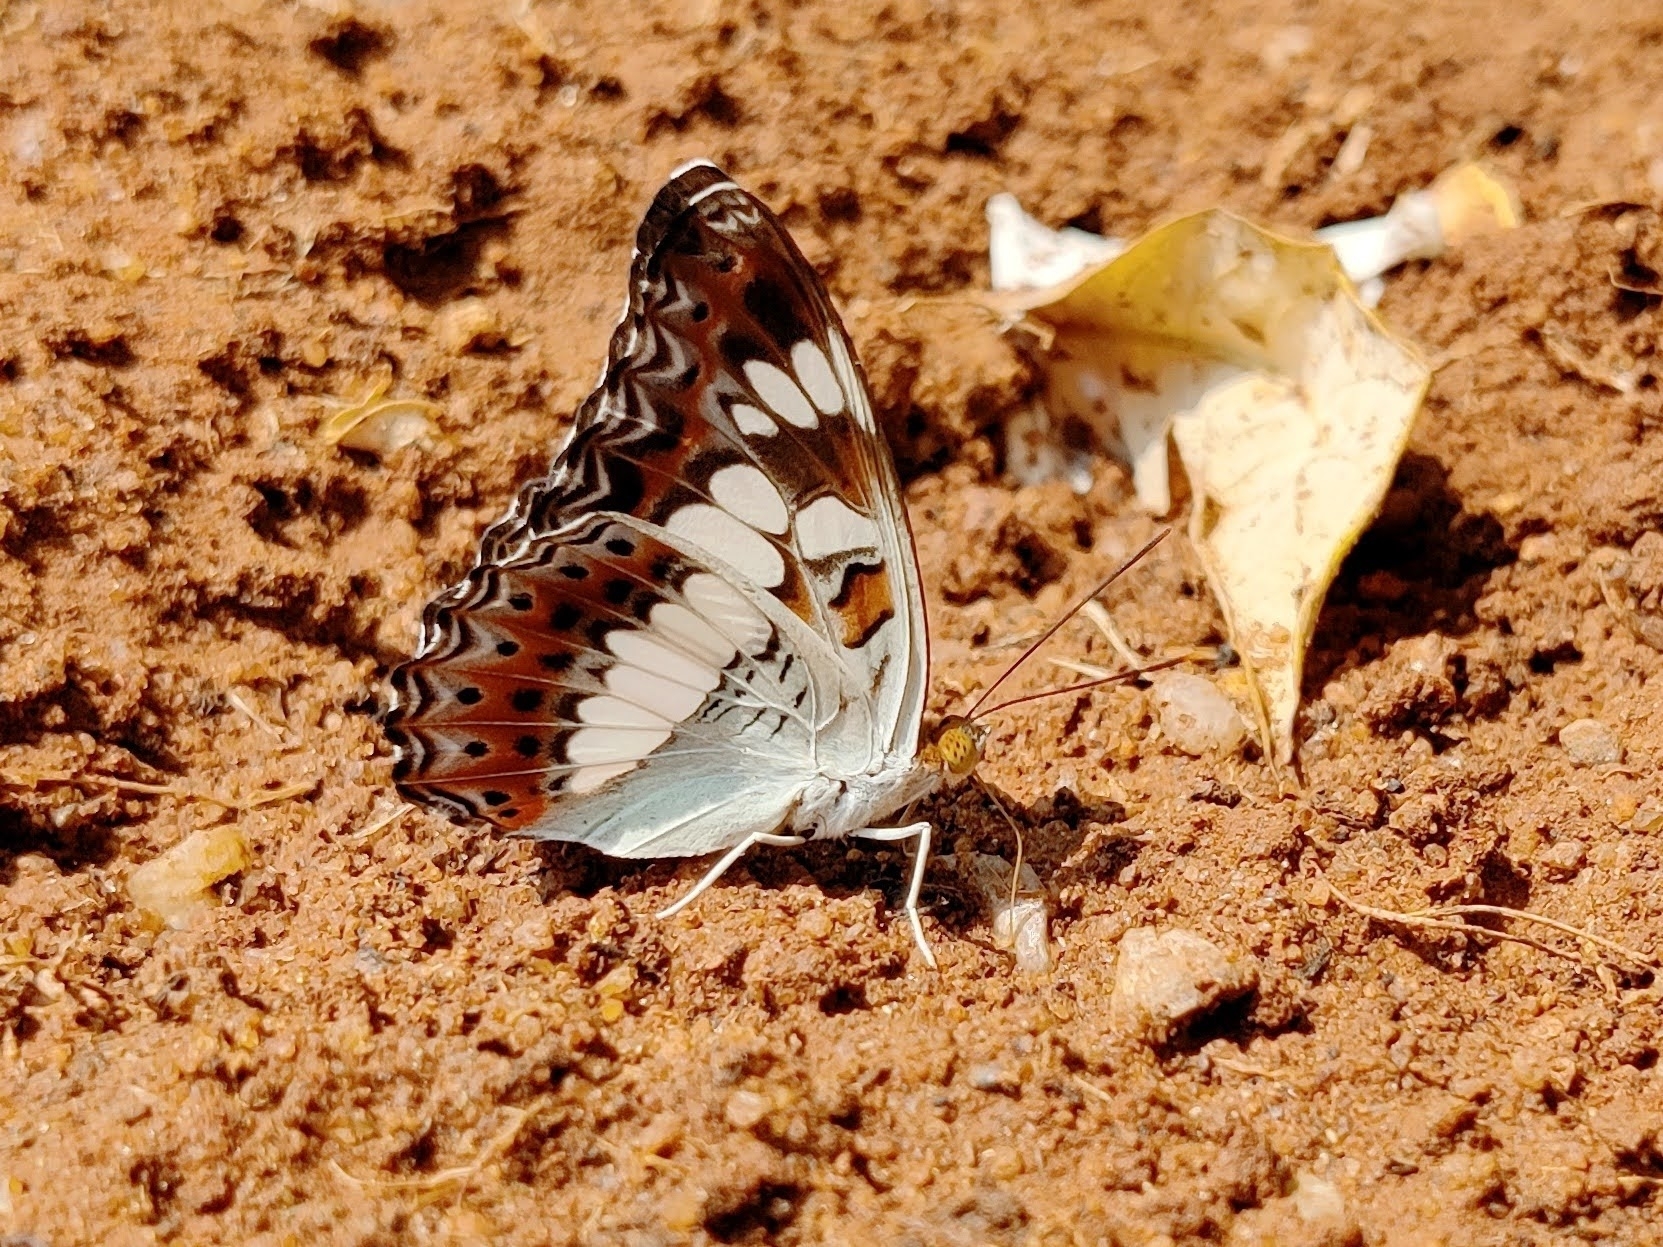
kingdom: Animalia
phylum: Arthropoda
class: Insecta
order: Lepidoptera
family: Nymphalidae
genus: Limenitis
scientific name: Limenitis Moduza procris
